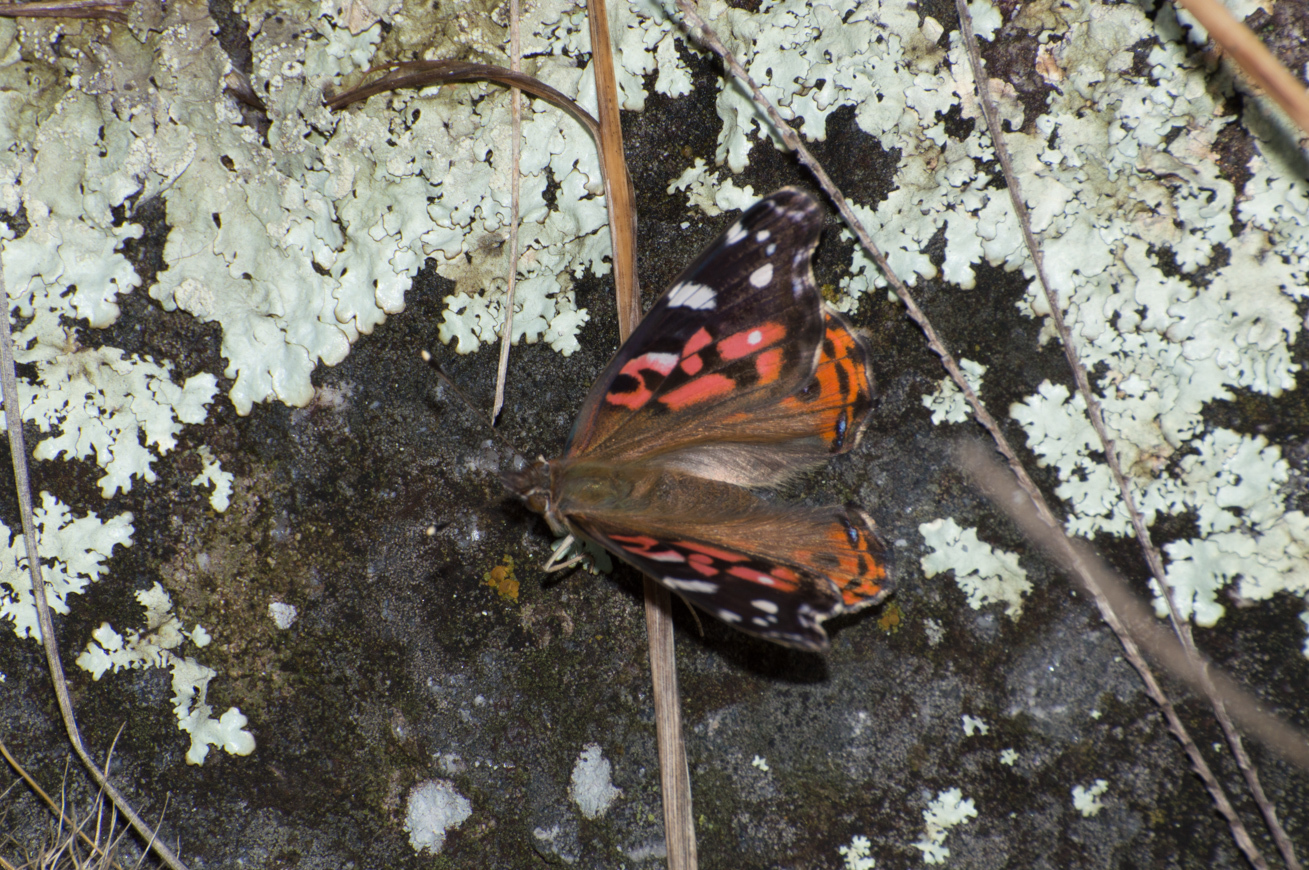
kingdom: Animalia
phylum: Arthropoda
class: Insecta
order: Lepidoptera
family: Nymphalidae
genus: Vanessa
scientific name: Vanessa braziliensis
